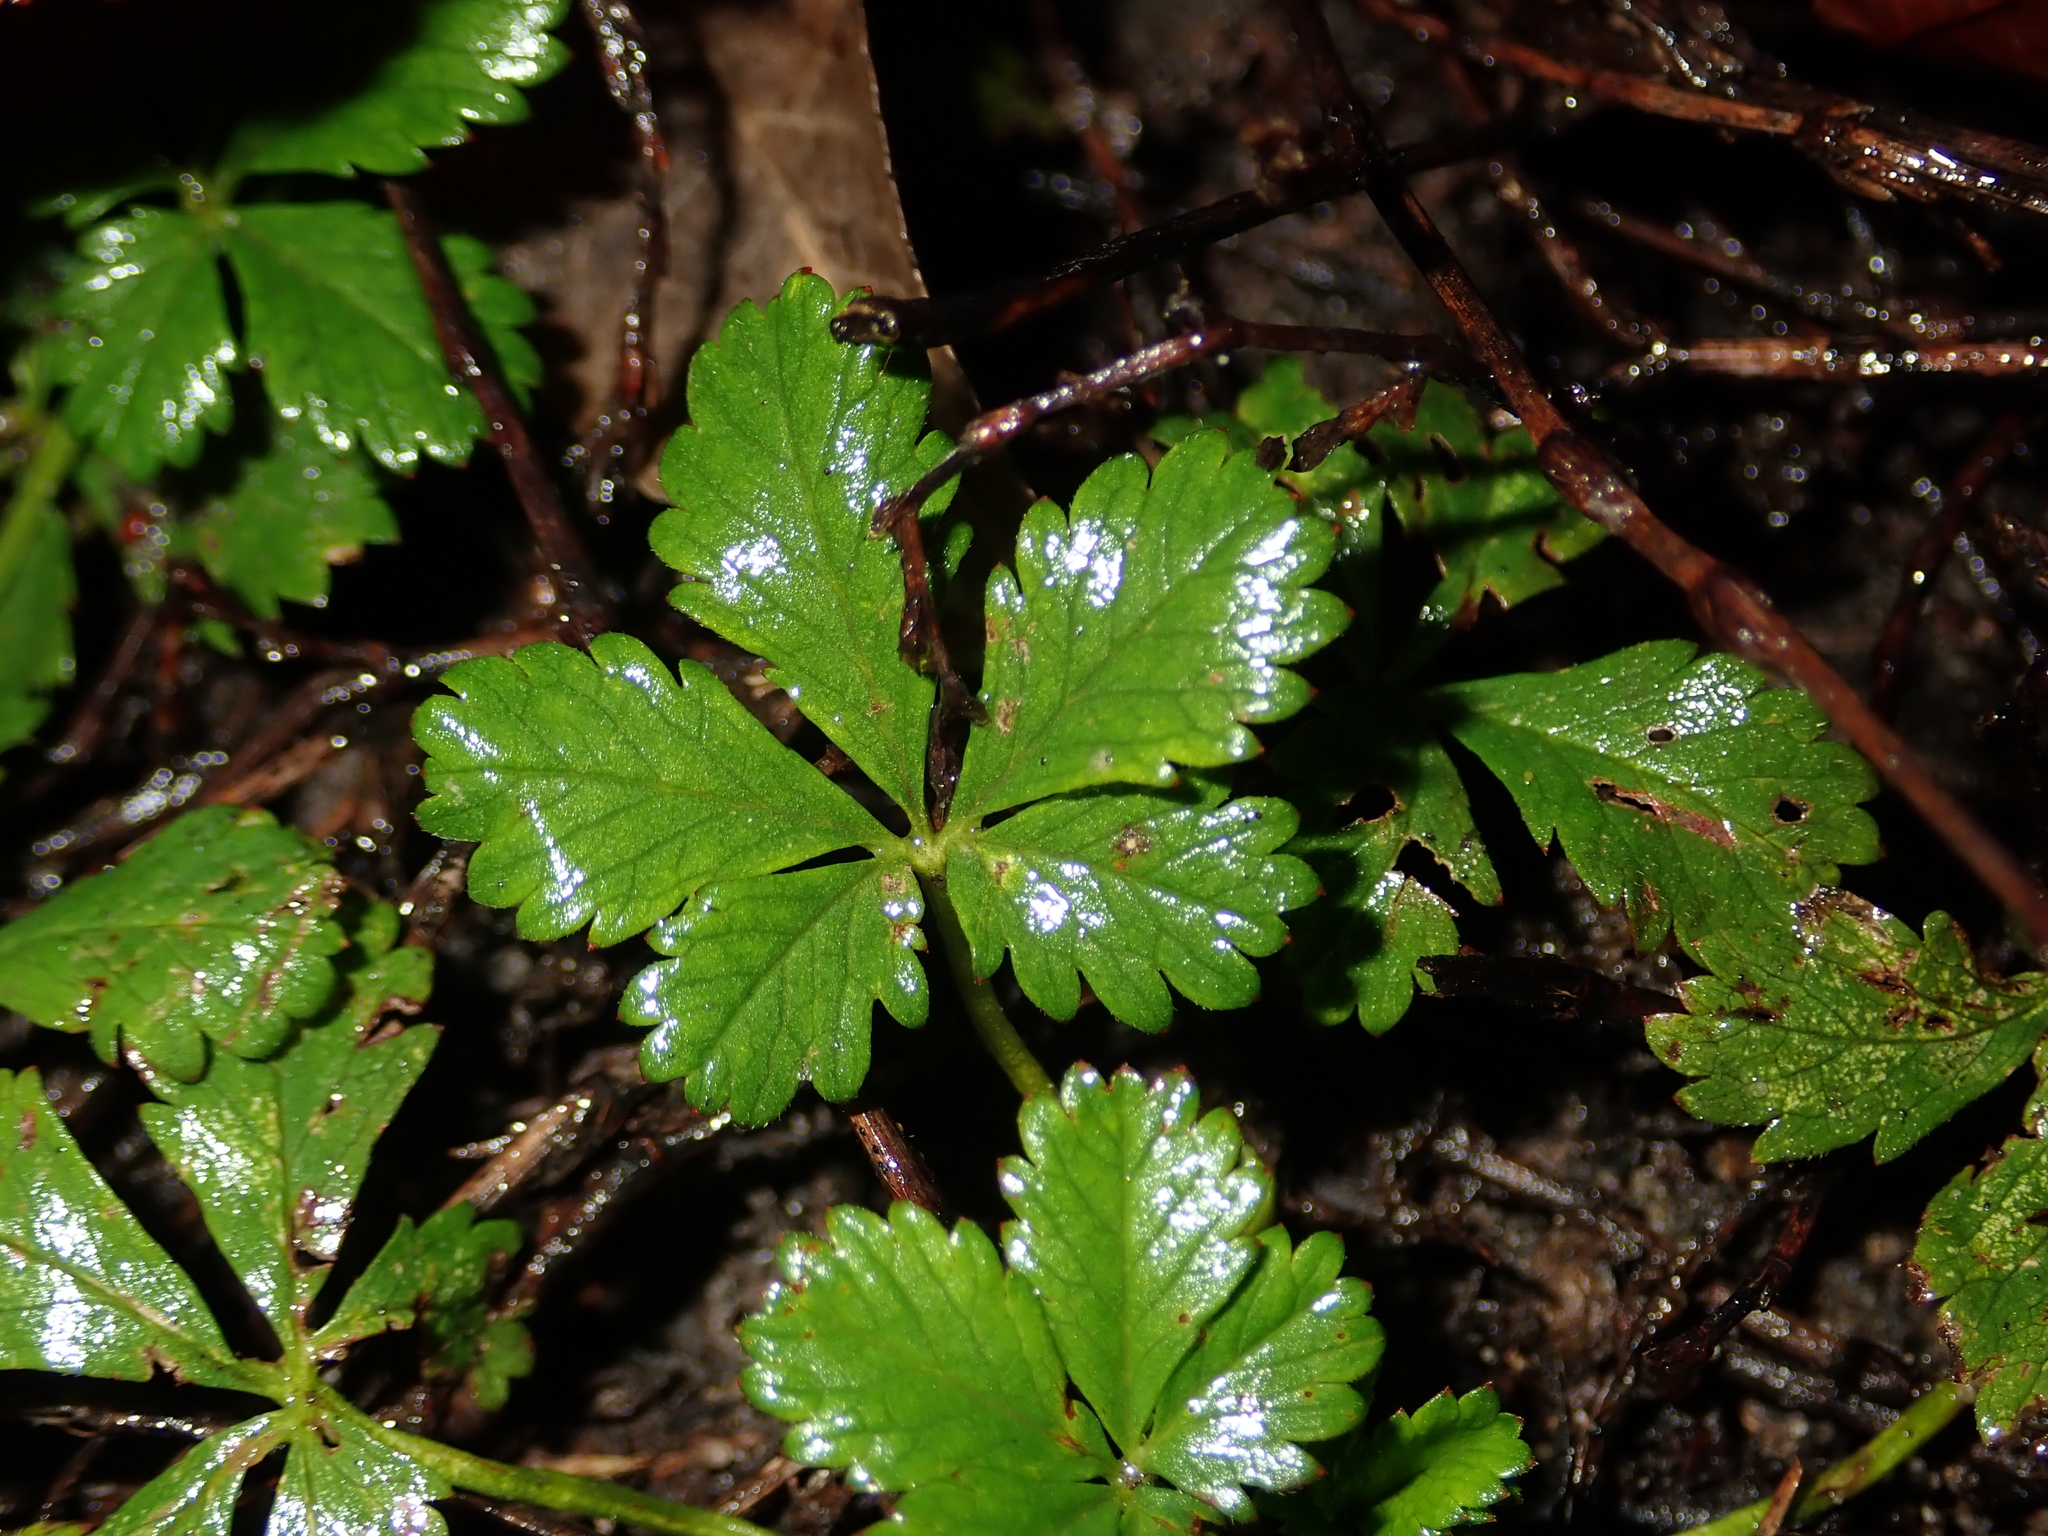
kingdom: Plantae
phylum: Tracheophyta
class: Magnoliopsida
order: Rosales
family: Rosaceae
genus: Potentilla
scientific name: Potentilla reptans
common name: Creeping cinquefoil
